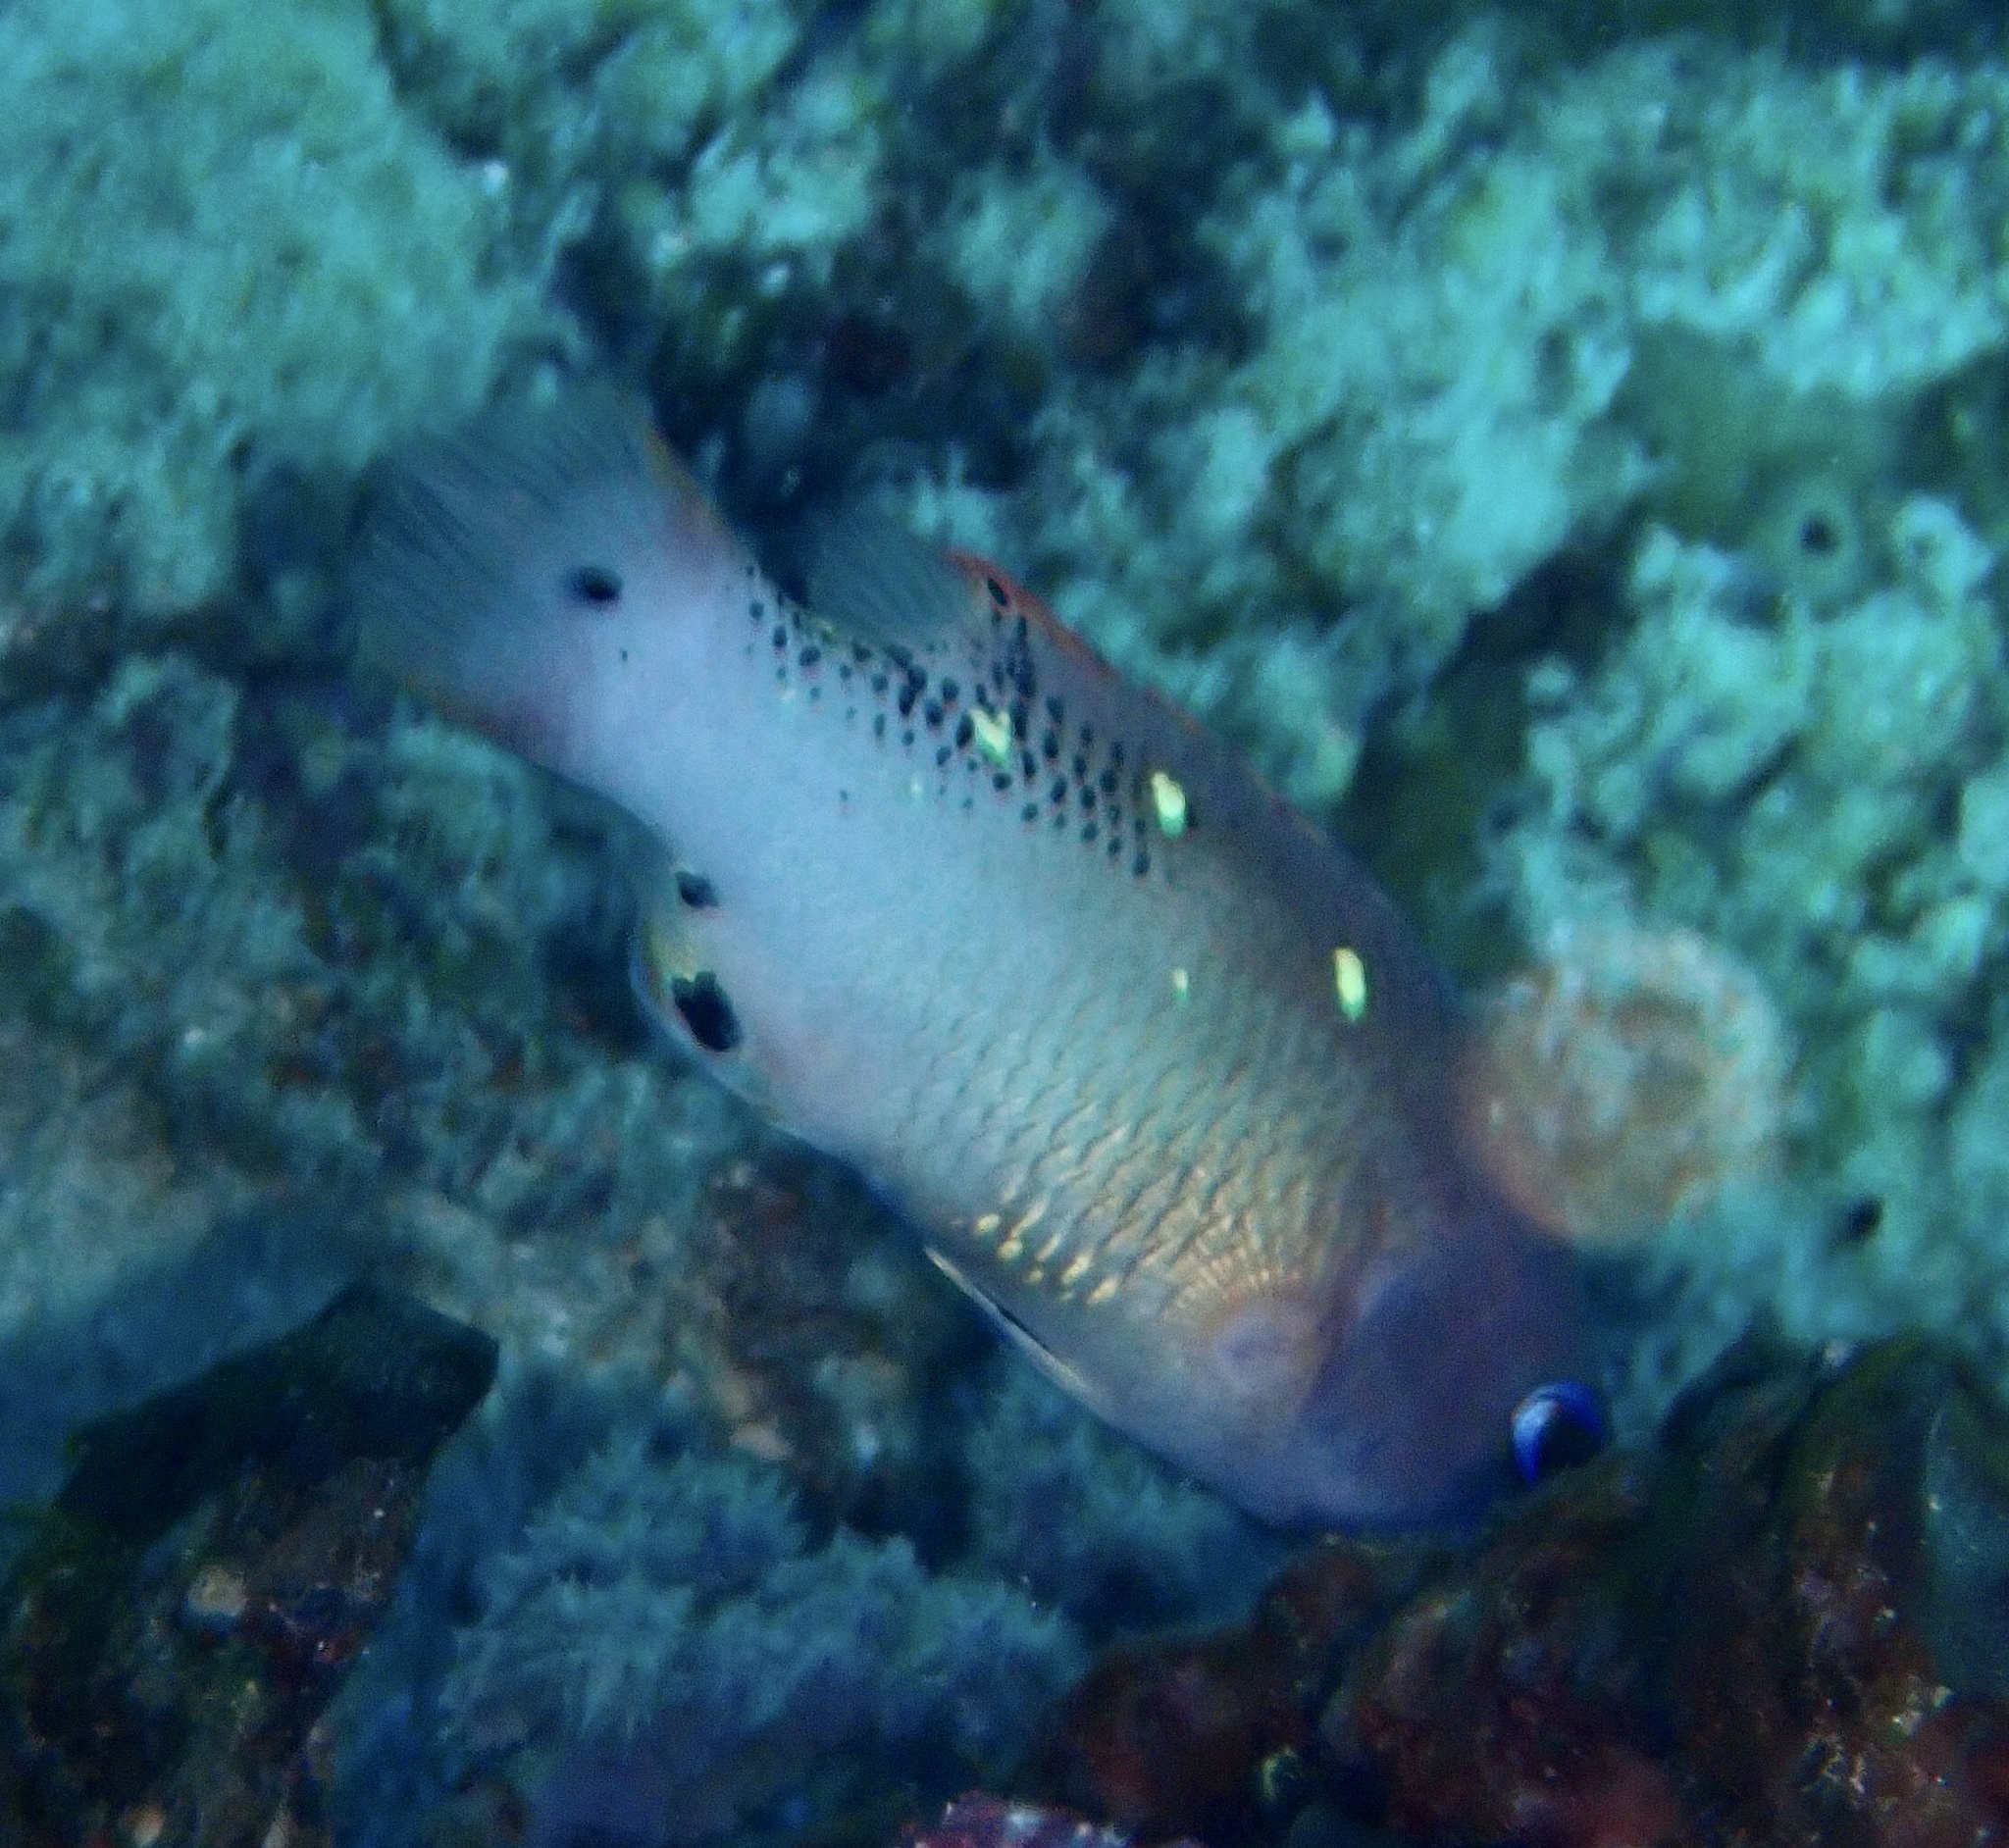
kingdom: Animalia
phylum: Chordata
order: Perciformes
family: Labridae
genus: Bodianus
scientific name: Bodianus dictynna
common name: Diana's hogfish
